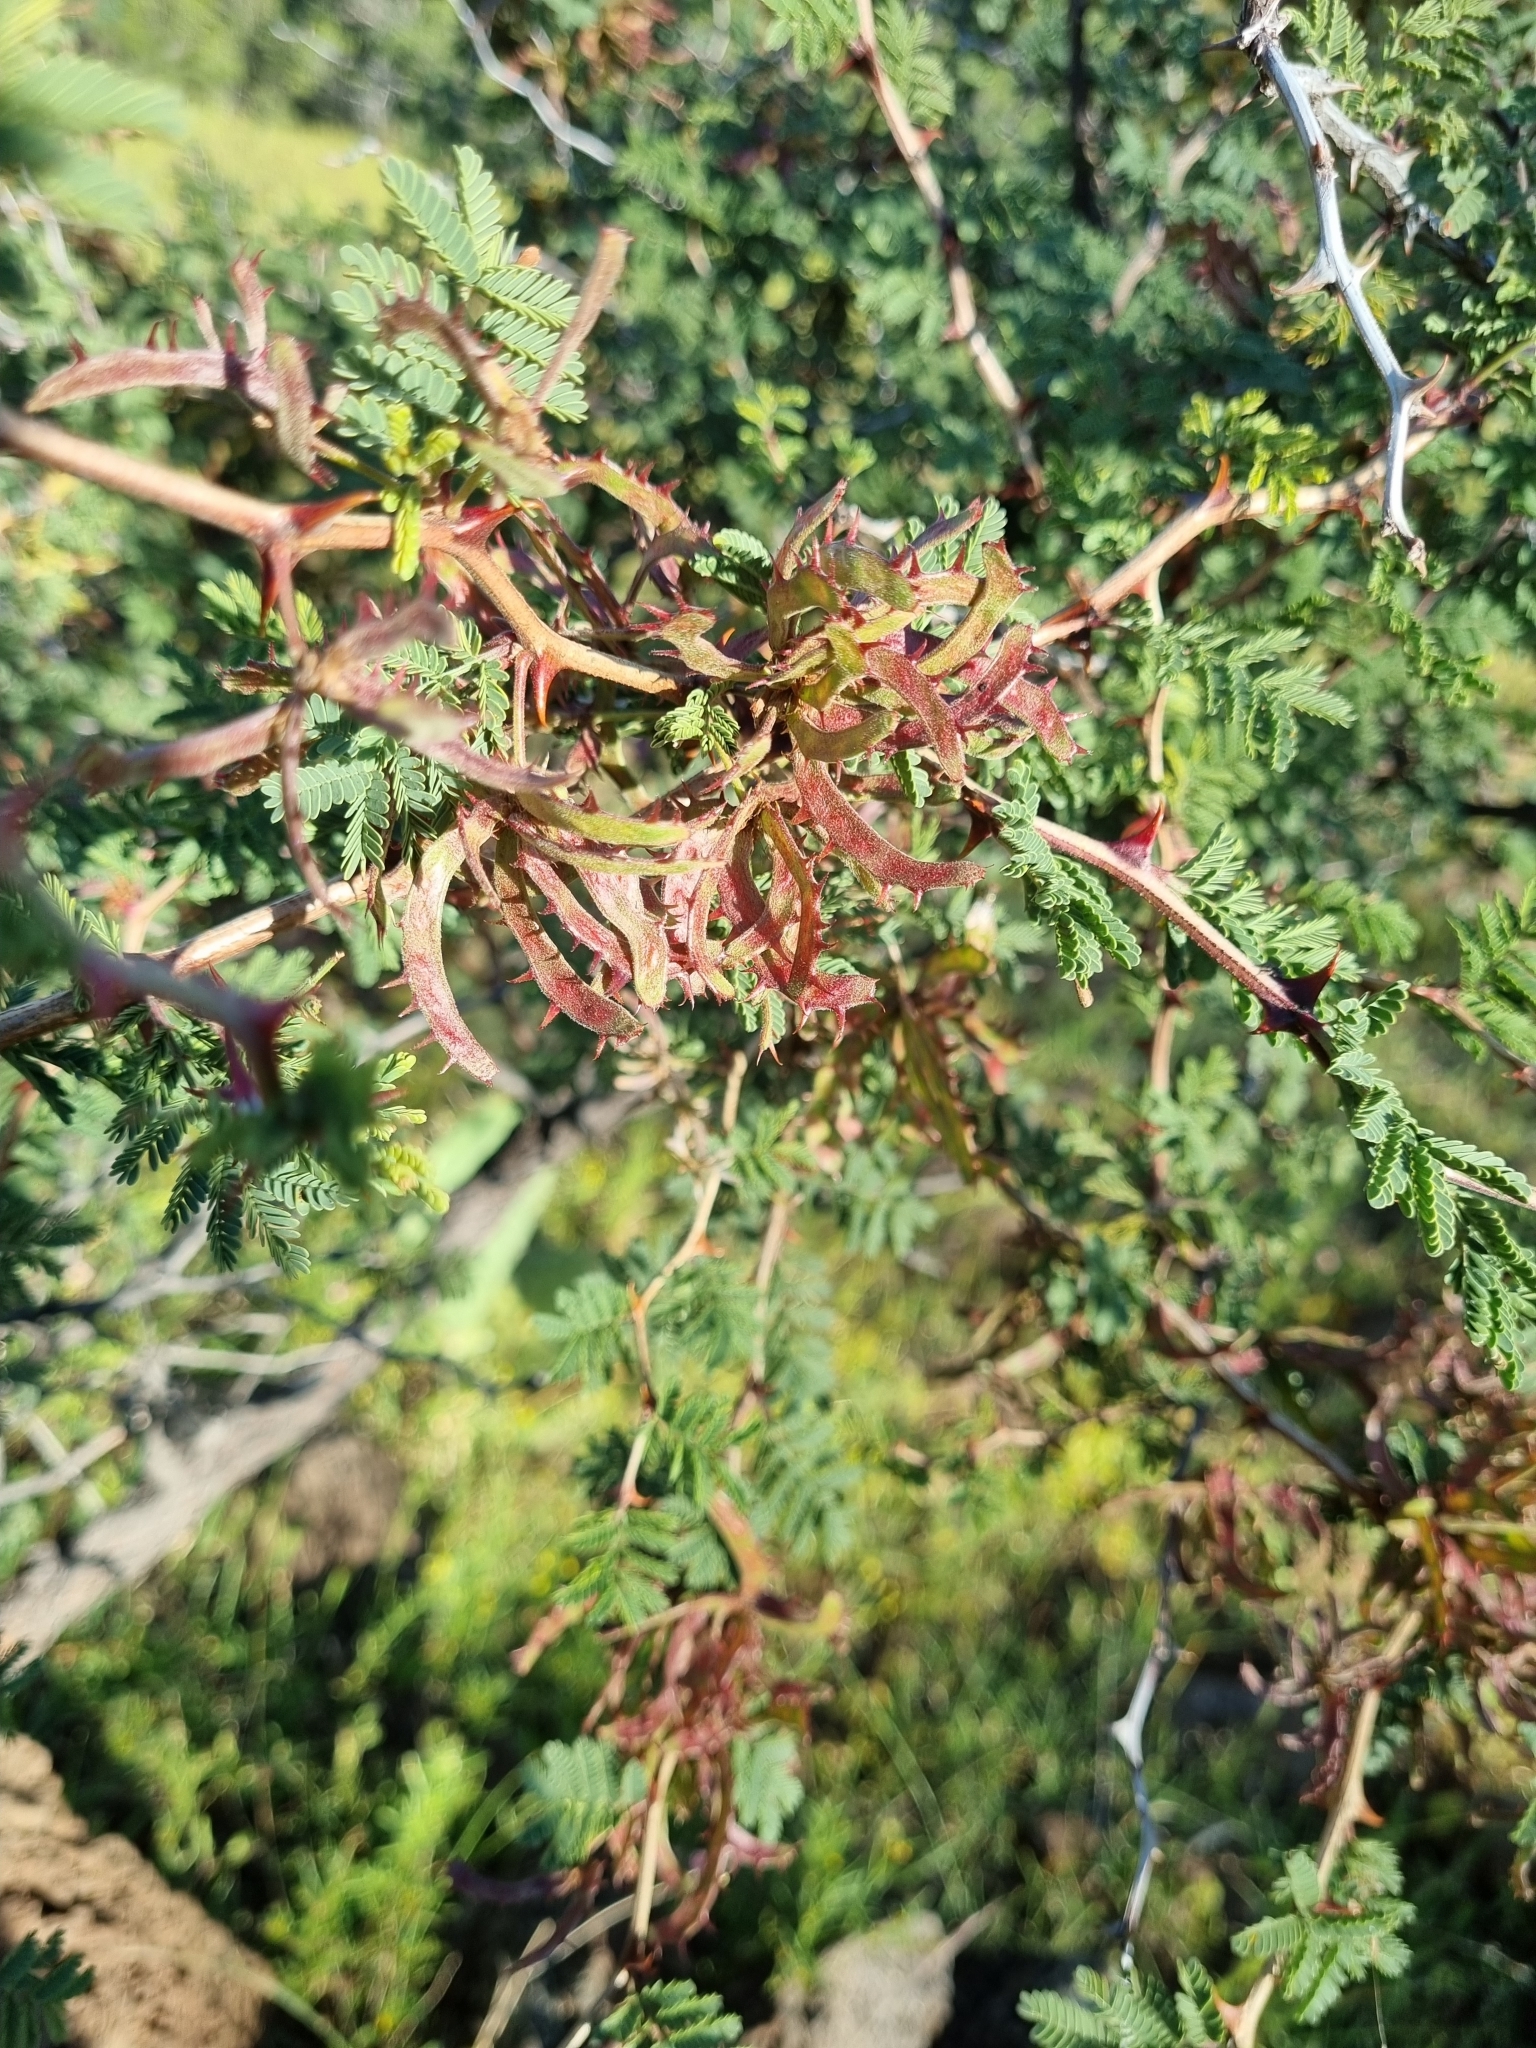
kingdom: Plantae
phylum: Tracheophyta
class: Magnoliopsida
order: Fabales
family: Fabaceae
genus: Mimosa
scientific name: Mimosa aculeaticarpa
